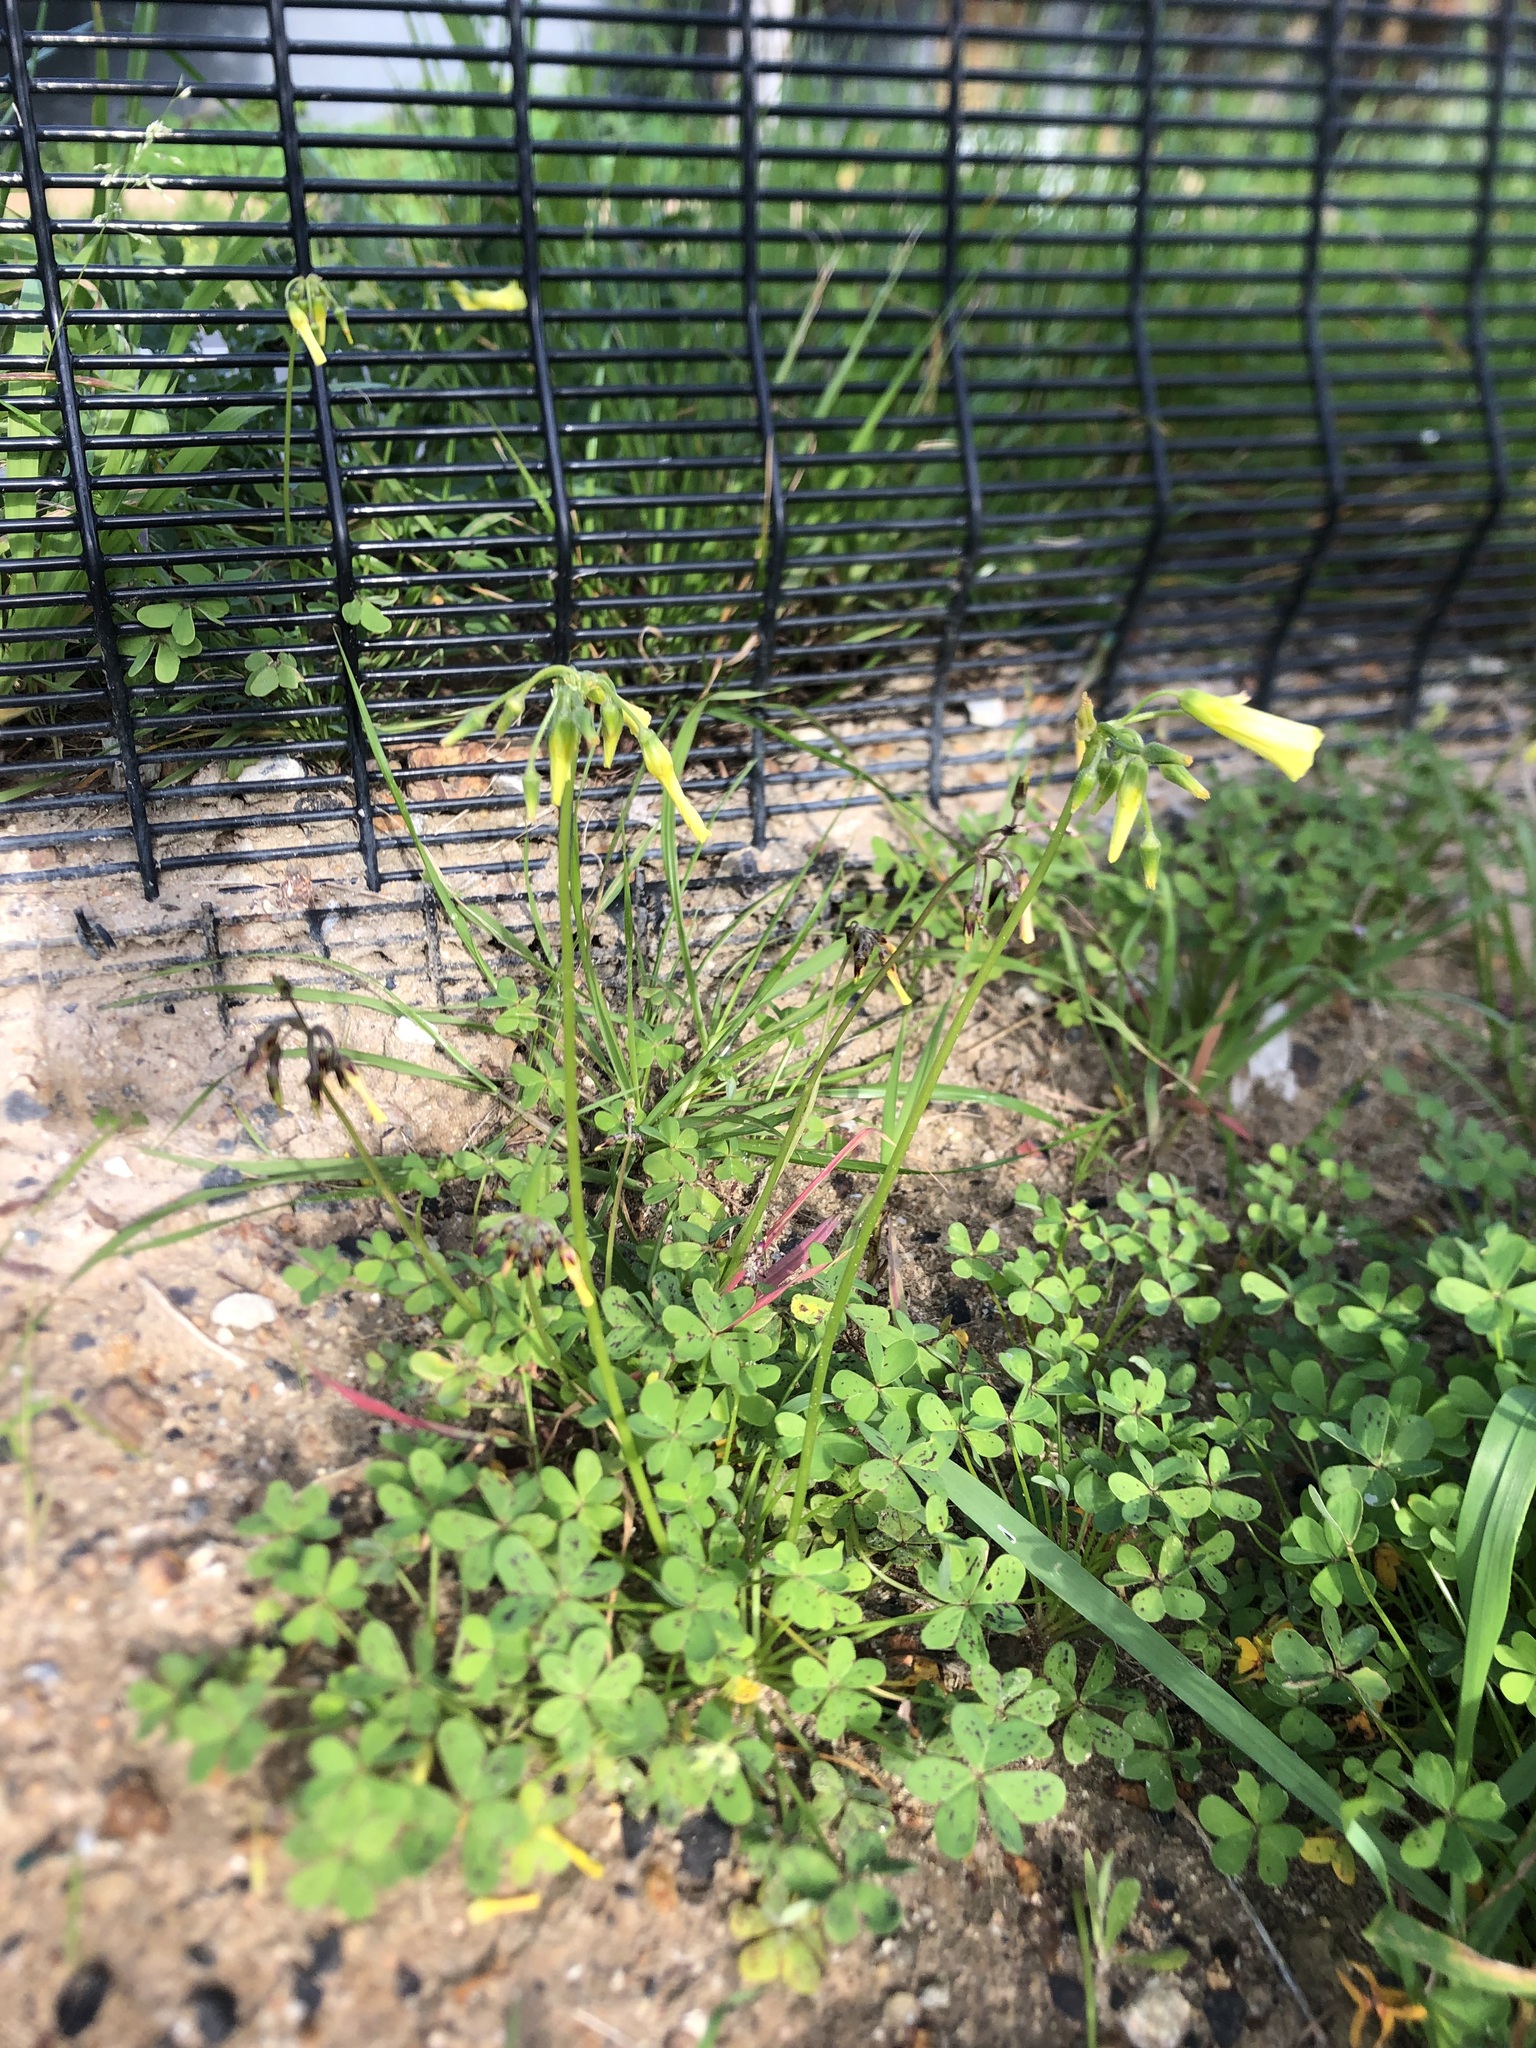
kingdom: Plantae
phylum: Tracheophyta
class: Magnoliopsida
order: Oxalidales
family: Oxalidaceae
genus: Oxalis
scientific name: Oxalis pes-caprae
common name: Bermuda-buttercup
